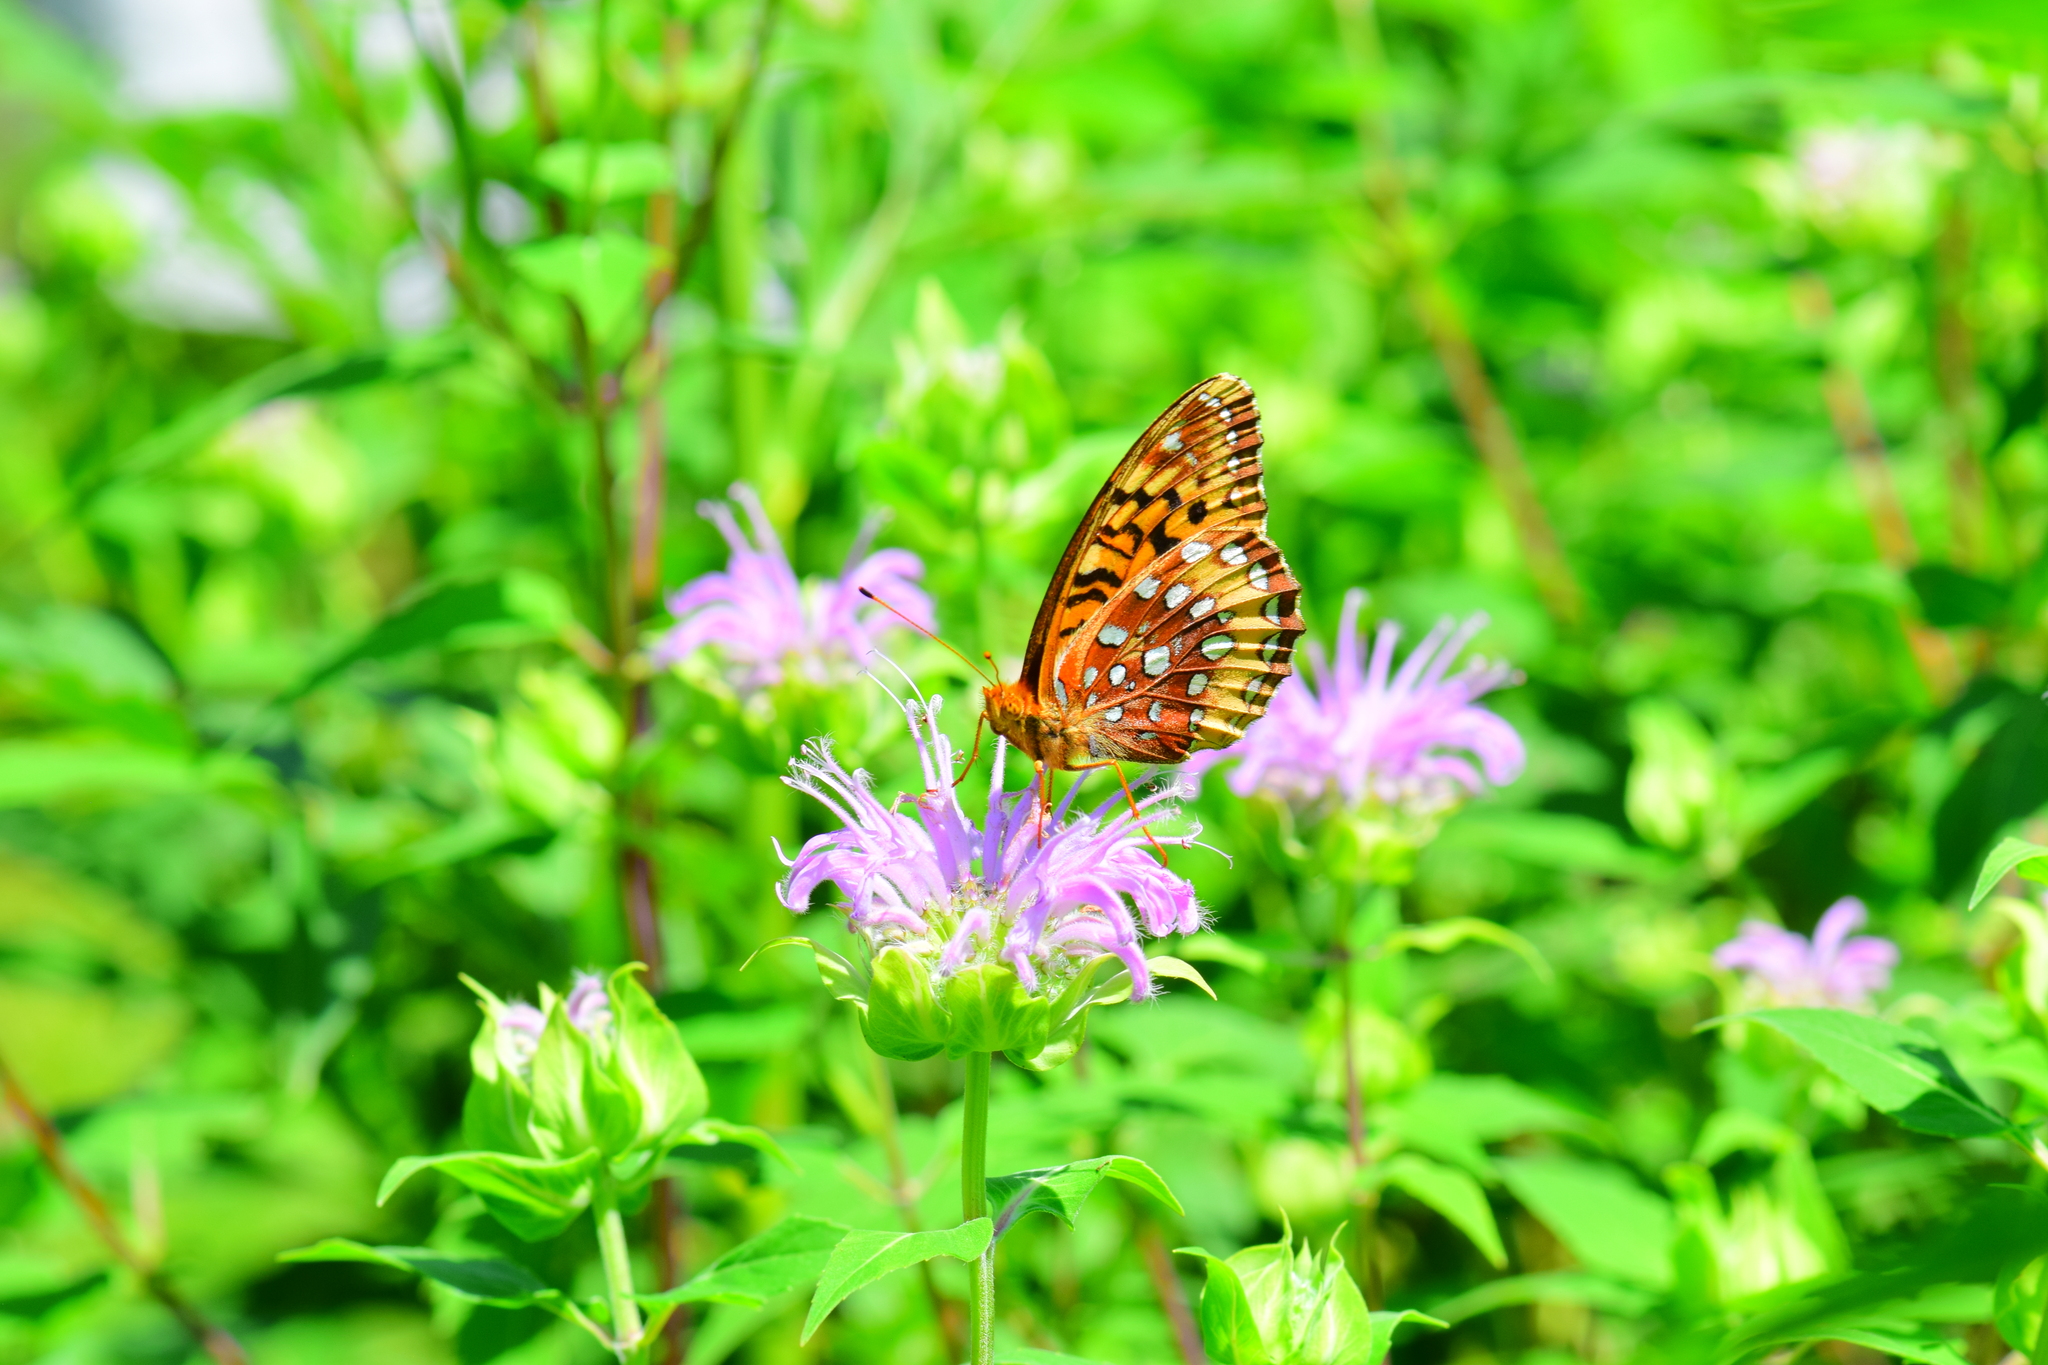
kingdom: Animalia
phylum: Arthropoda
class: Insecta
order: Lepidoptera
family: Nymphalidae
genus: Speyeria
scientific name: Speyeria cybele
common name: Great spangled fritillary
